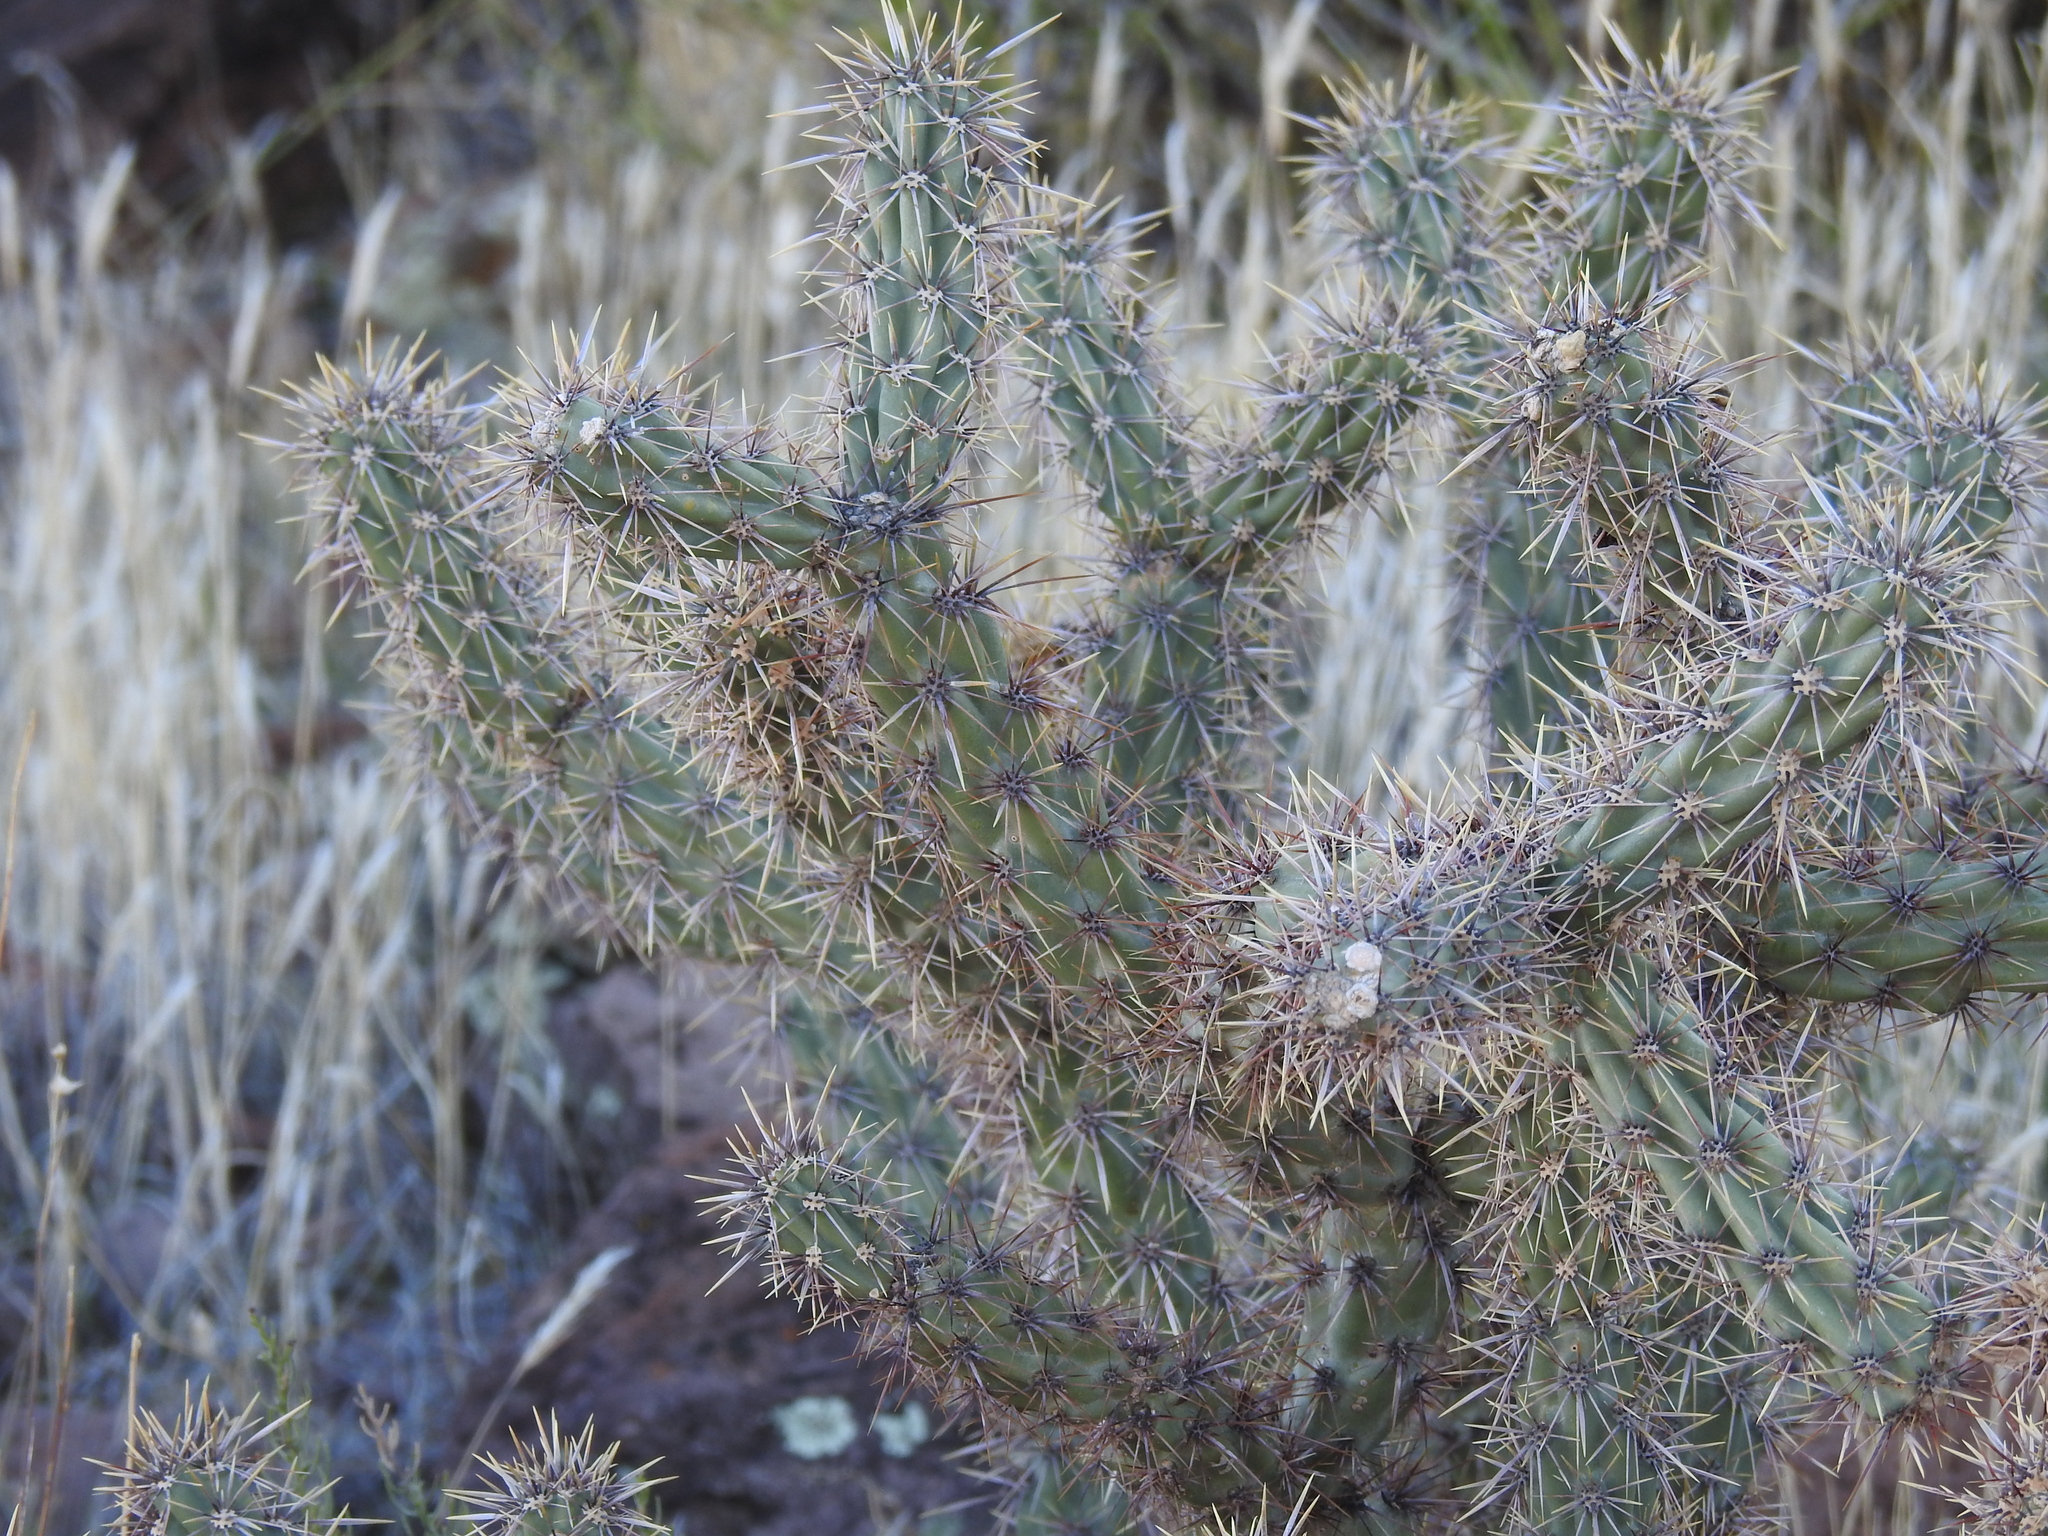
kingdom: Plantae
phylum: Tracheophyta
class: Magnoliopsida
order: Caryophyllales
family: Cactaceae
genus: Cylindropuntia
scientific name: Cylindropuntia acanthocarpa
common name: Buckhorn cholla
